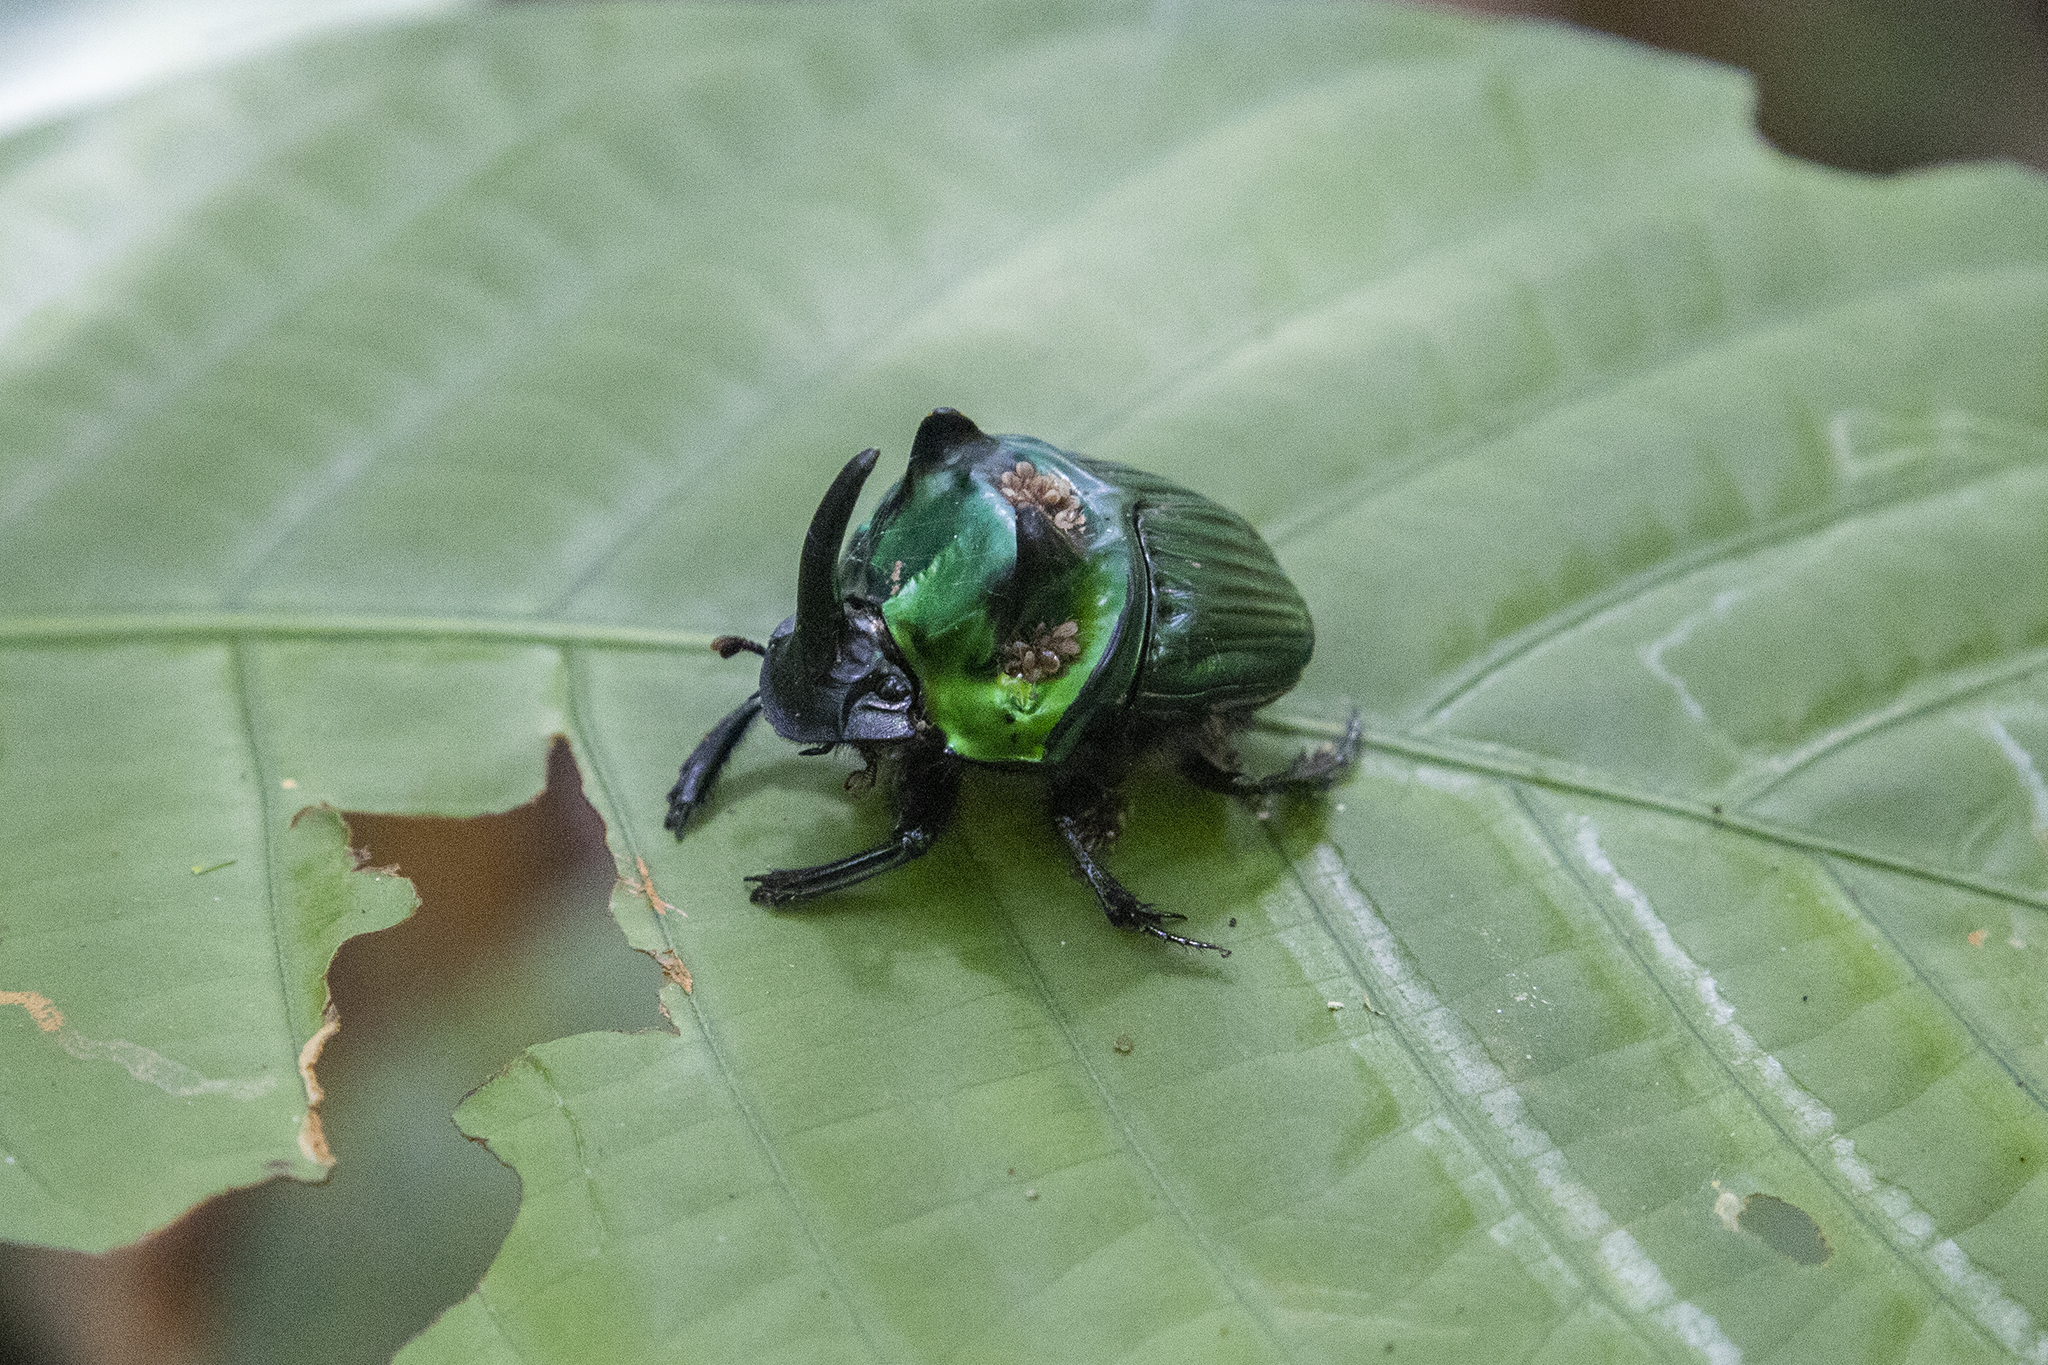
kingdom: Animalia
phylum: Arthropoda
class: Insecta
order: Coleoptera
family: Scarabaeidae
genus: Oxysternon
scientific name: Oxysternon conspicillatum
